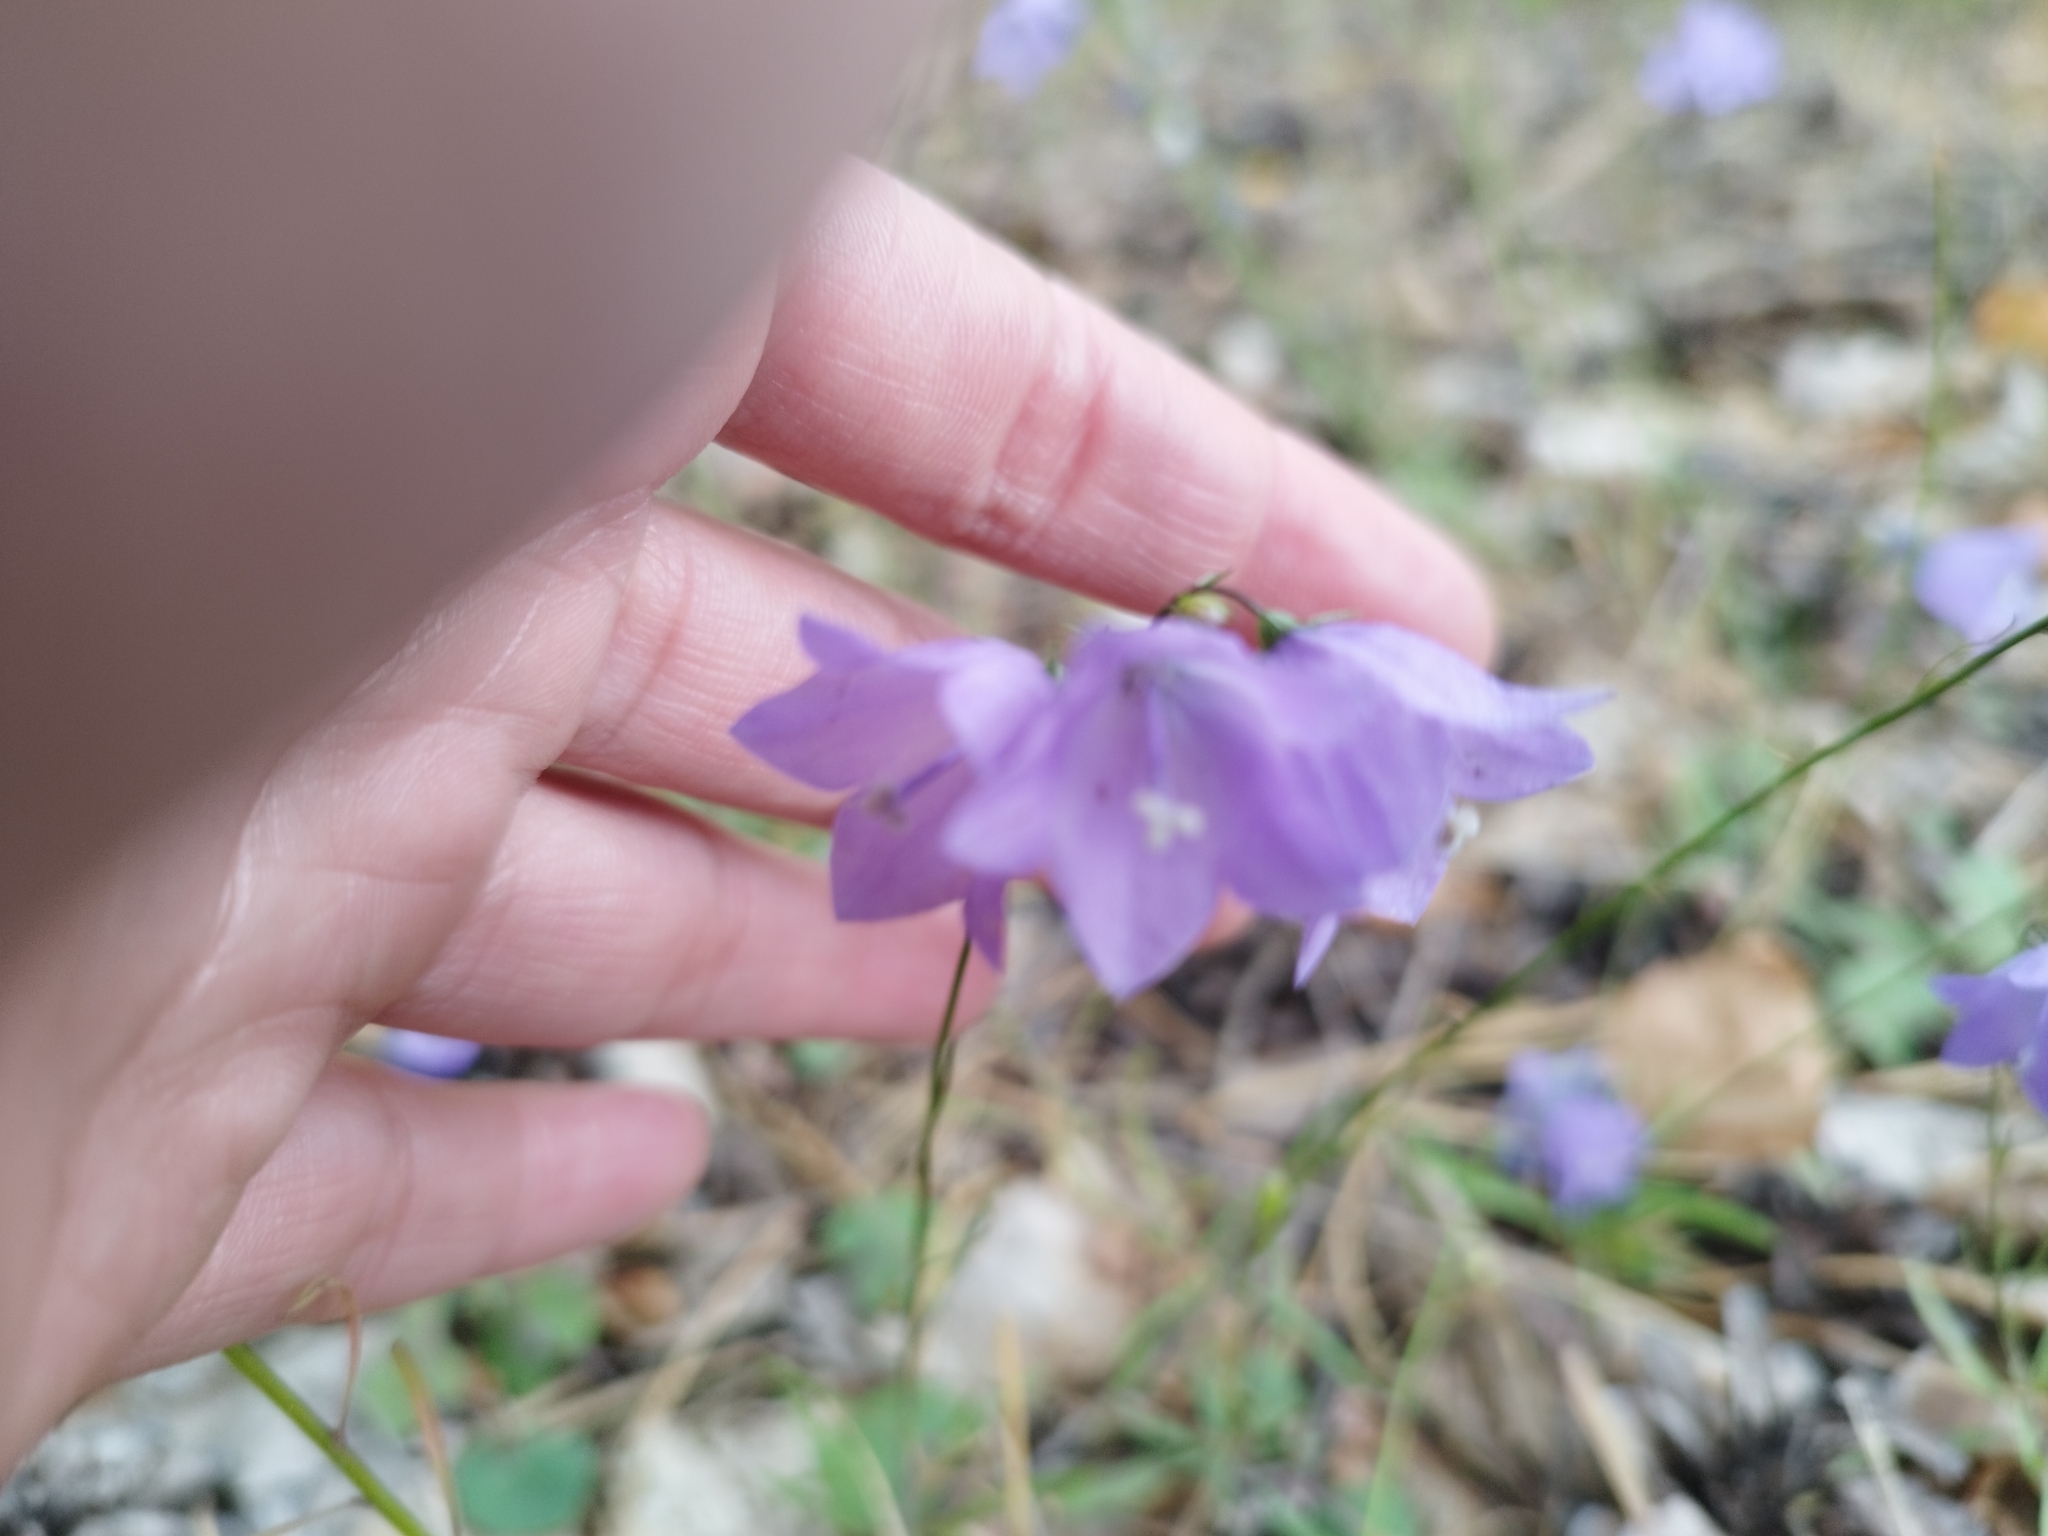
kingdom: Plantae
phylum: Tracheophyta
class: Magnoliopsida
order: Asterales
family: Campanulaceae
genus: Campanula
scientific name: Campanula rotundifolia
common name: Harebell
